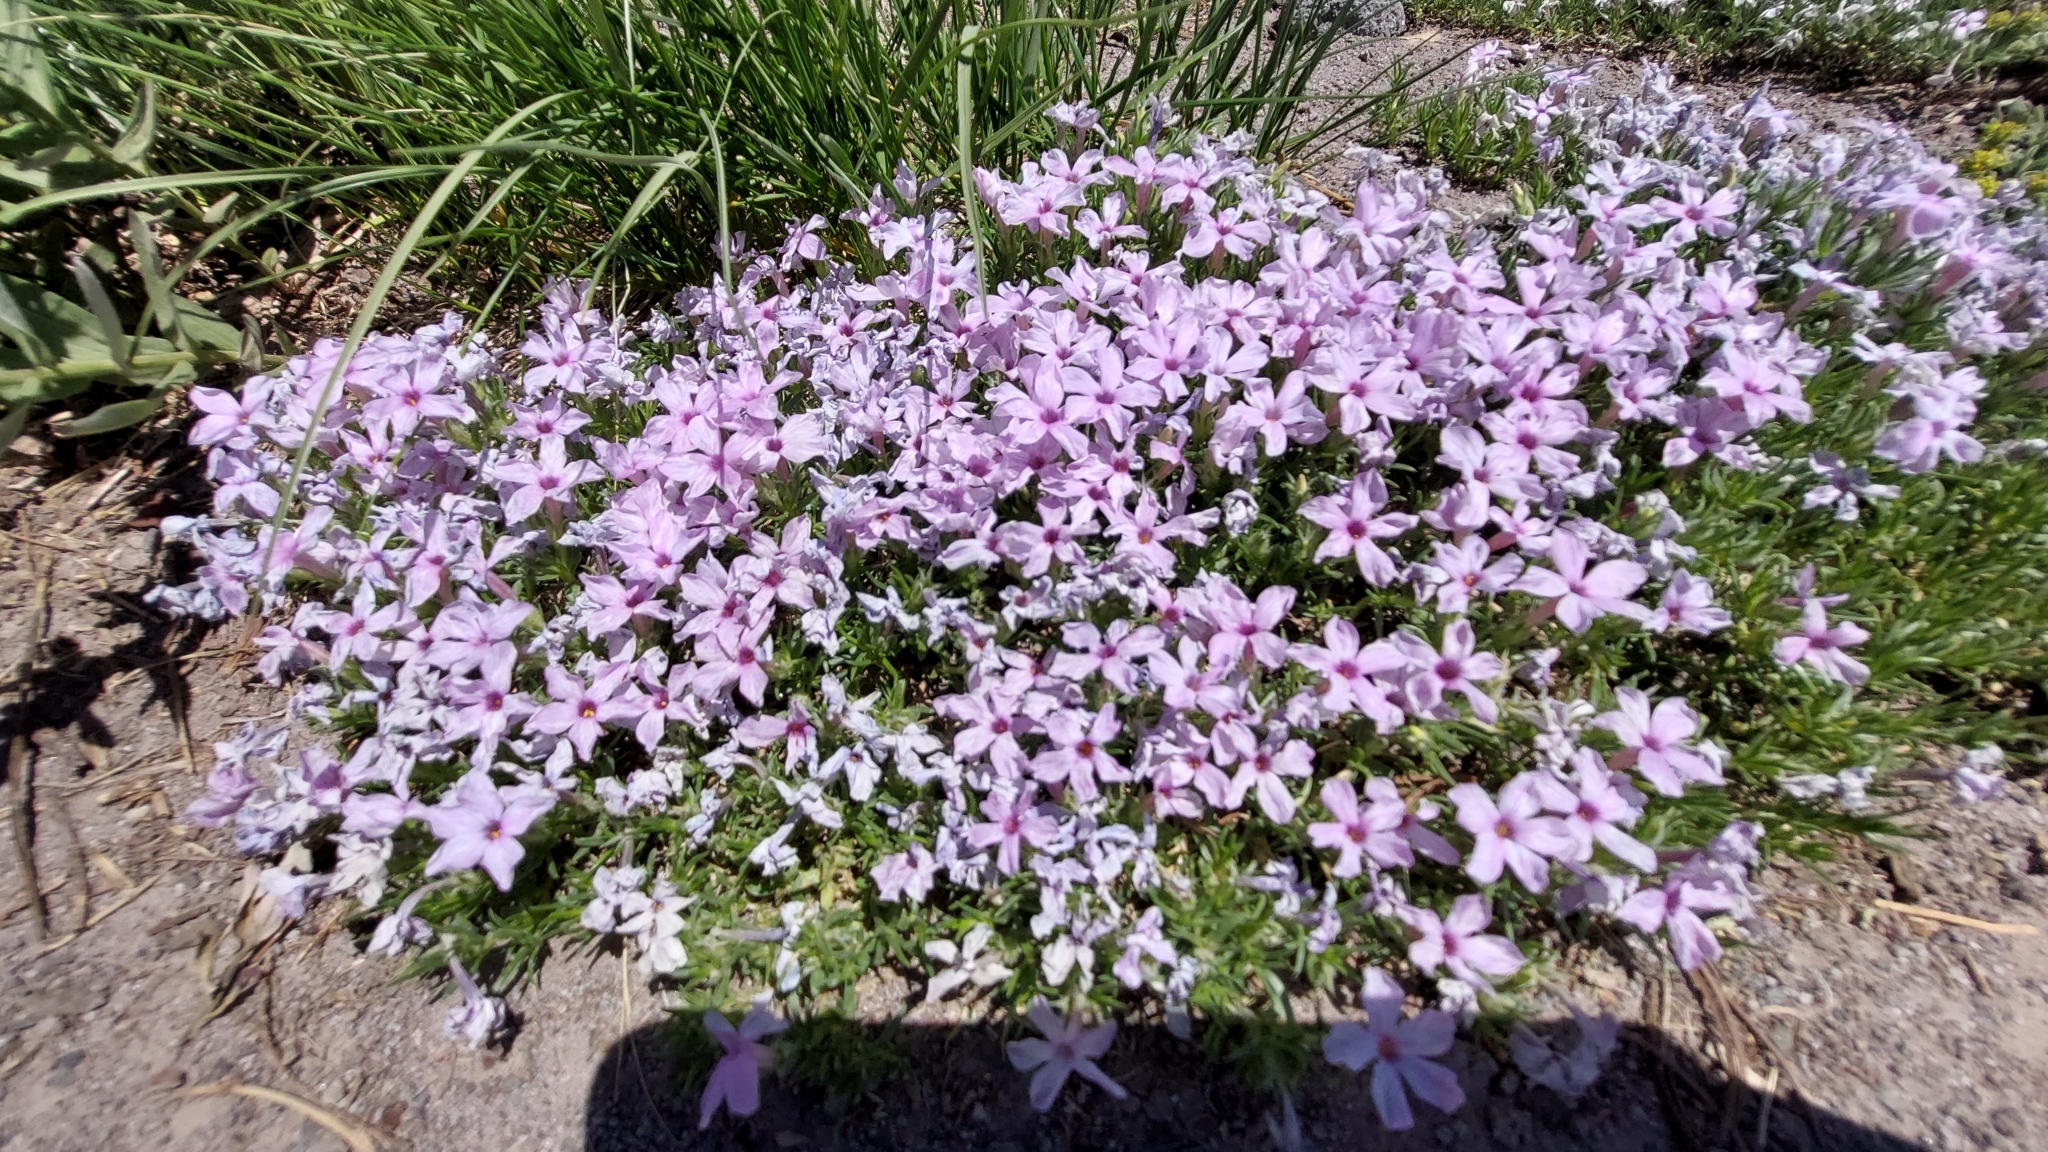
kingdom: Plantae
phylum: Tracheophyta
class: Magnoliopsida
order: Ericales
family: Polemoniaceae
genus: Phlox
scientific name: Phlox diffusa
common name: Mat phlox
